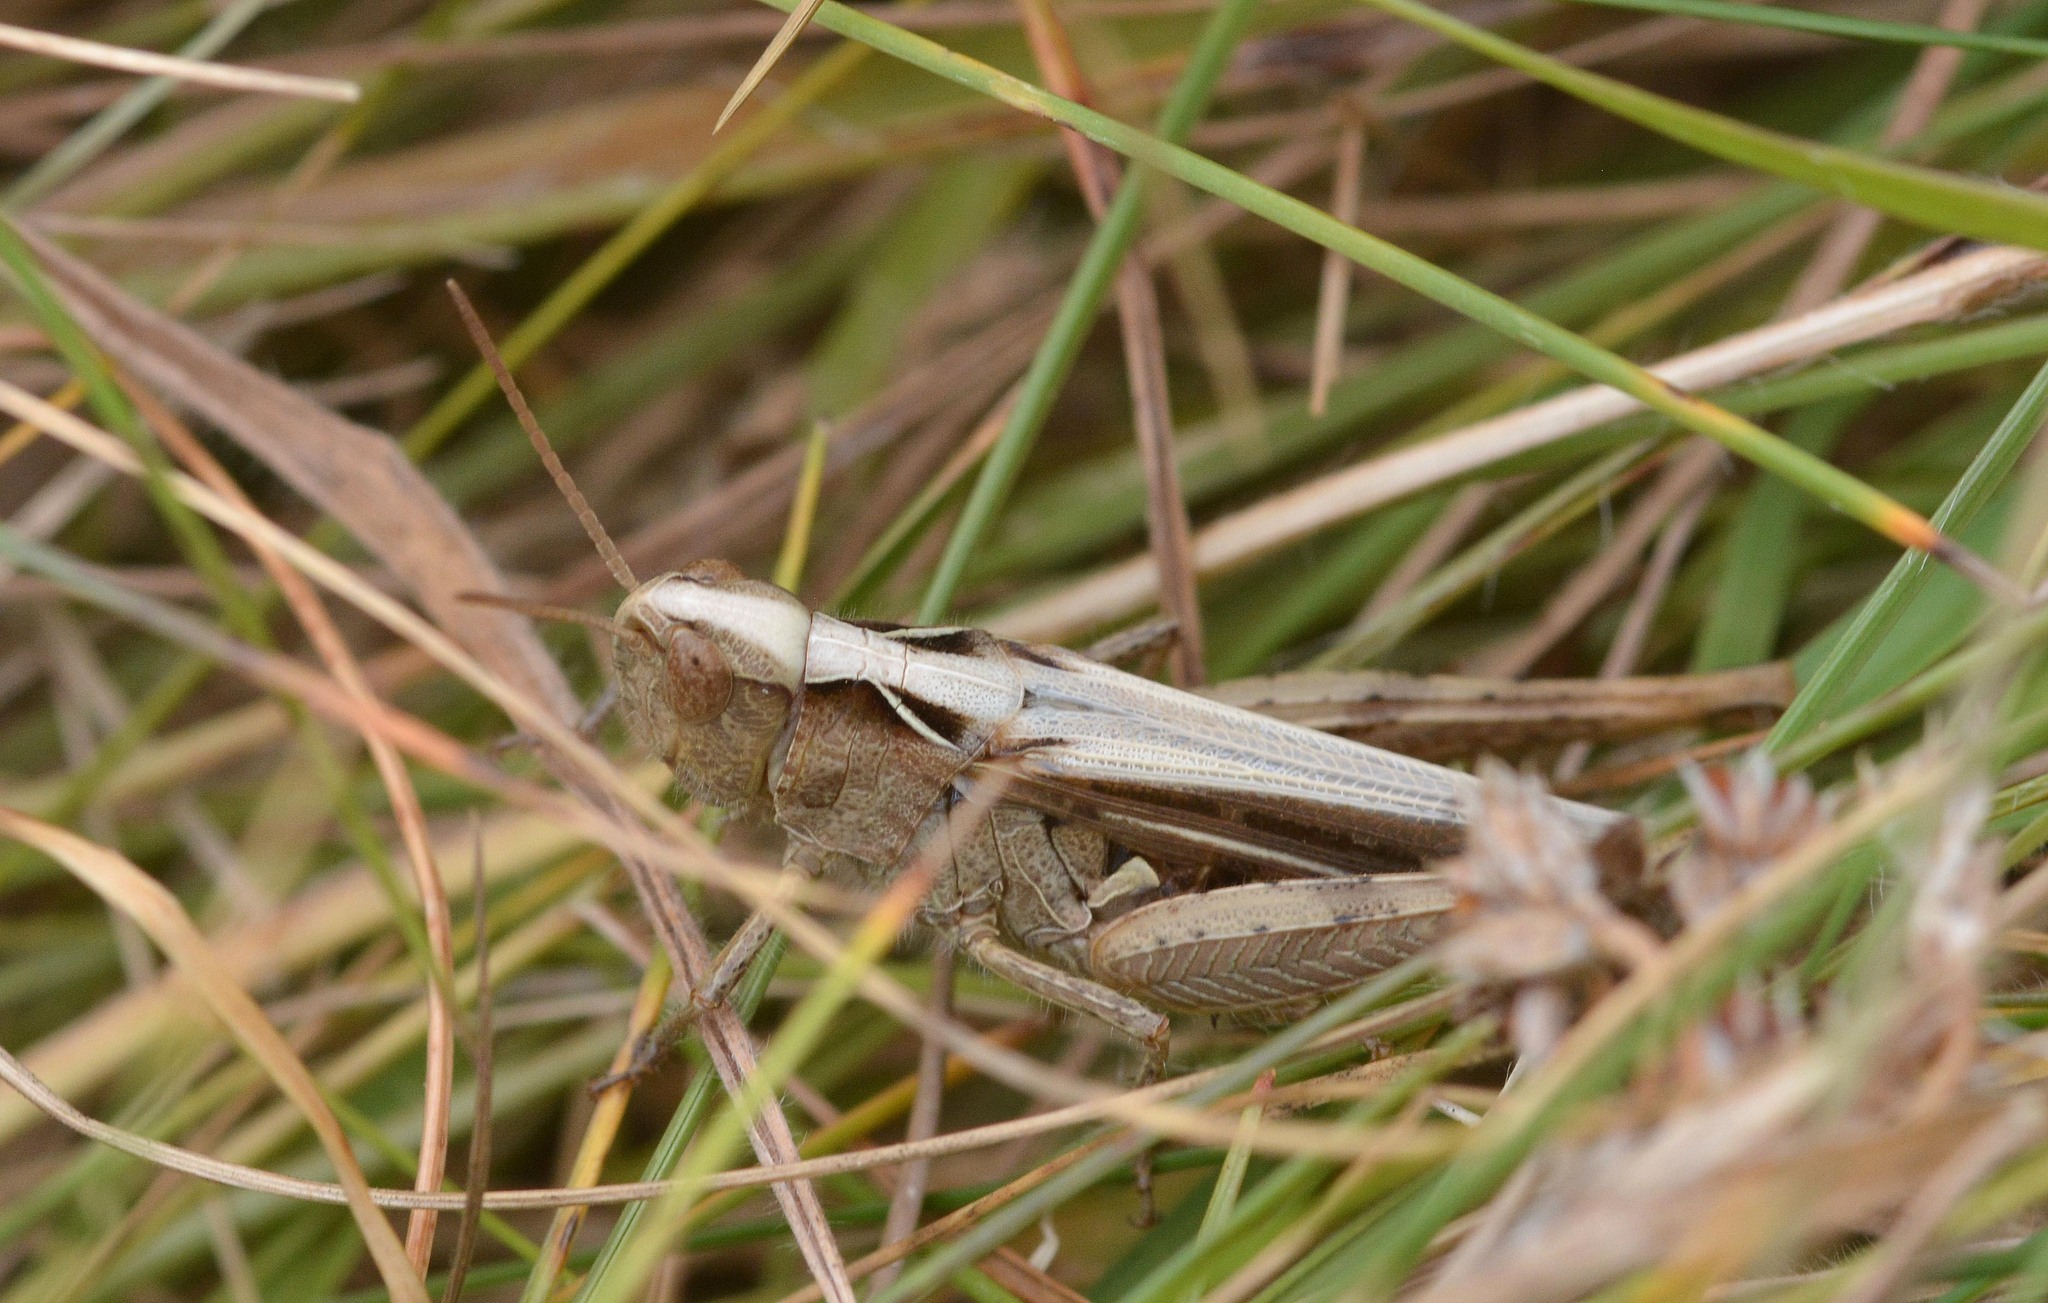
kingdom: Animalia
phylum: Arthropoda
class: Insecta
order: Orthoptera
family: Acrididae
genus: Chorthippus
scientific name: Chorthippus brunneus
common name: Field grasshopper
